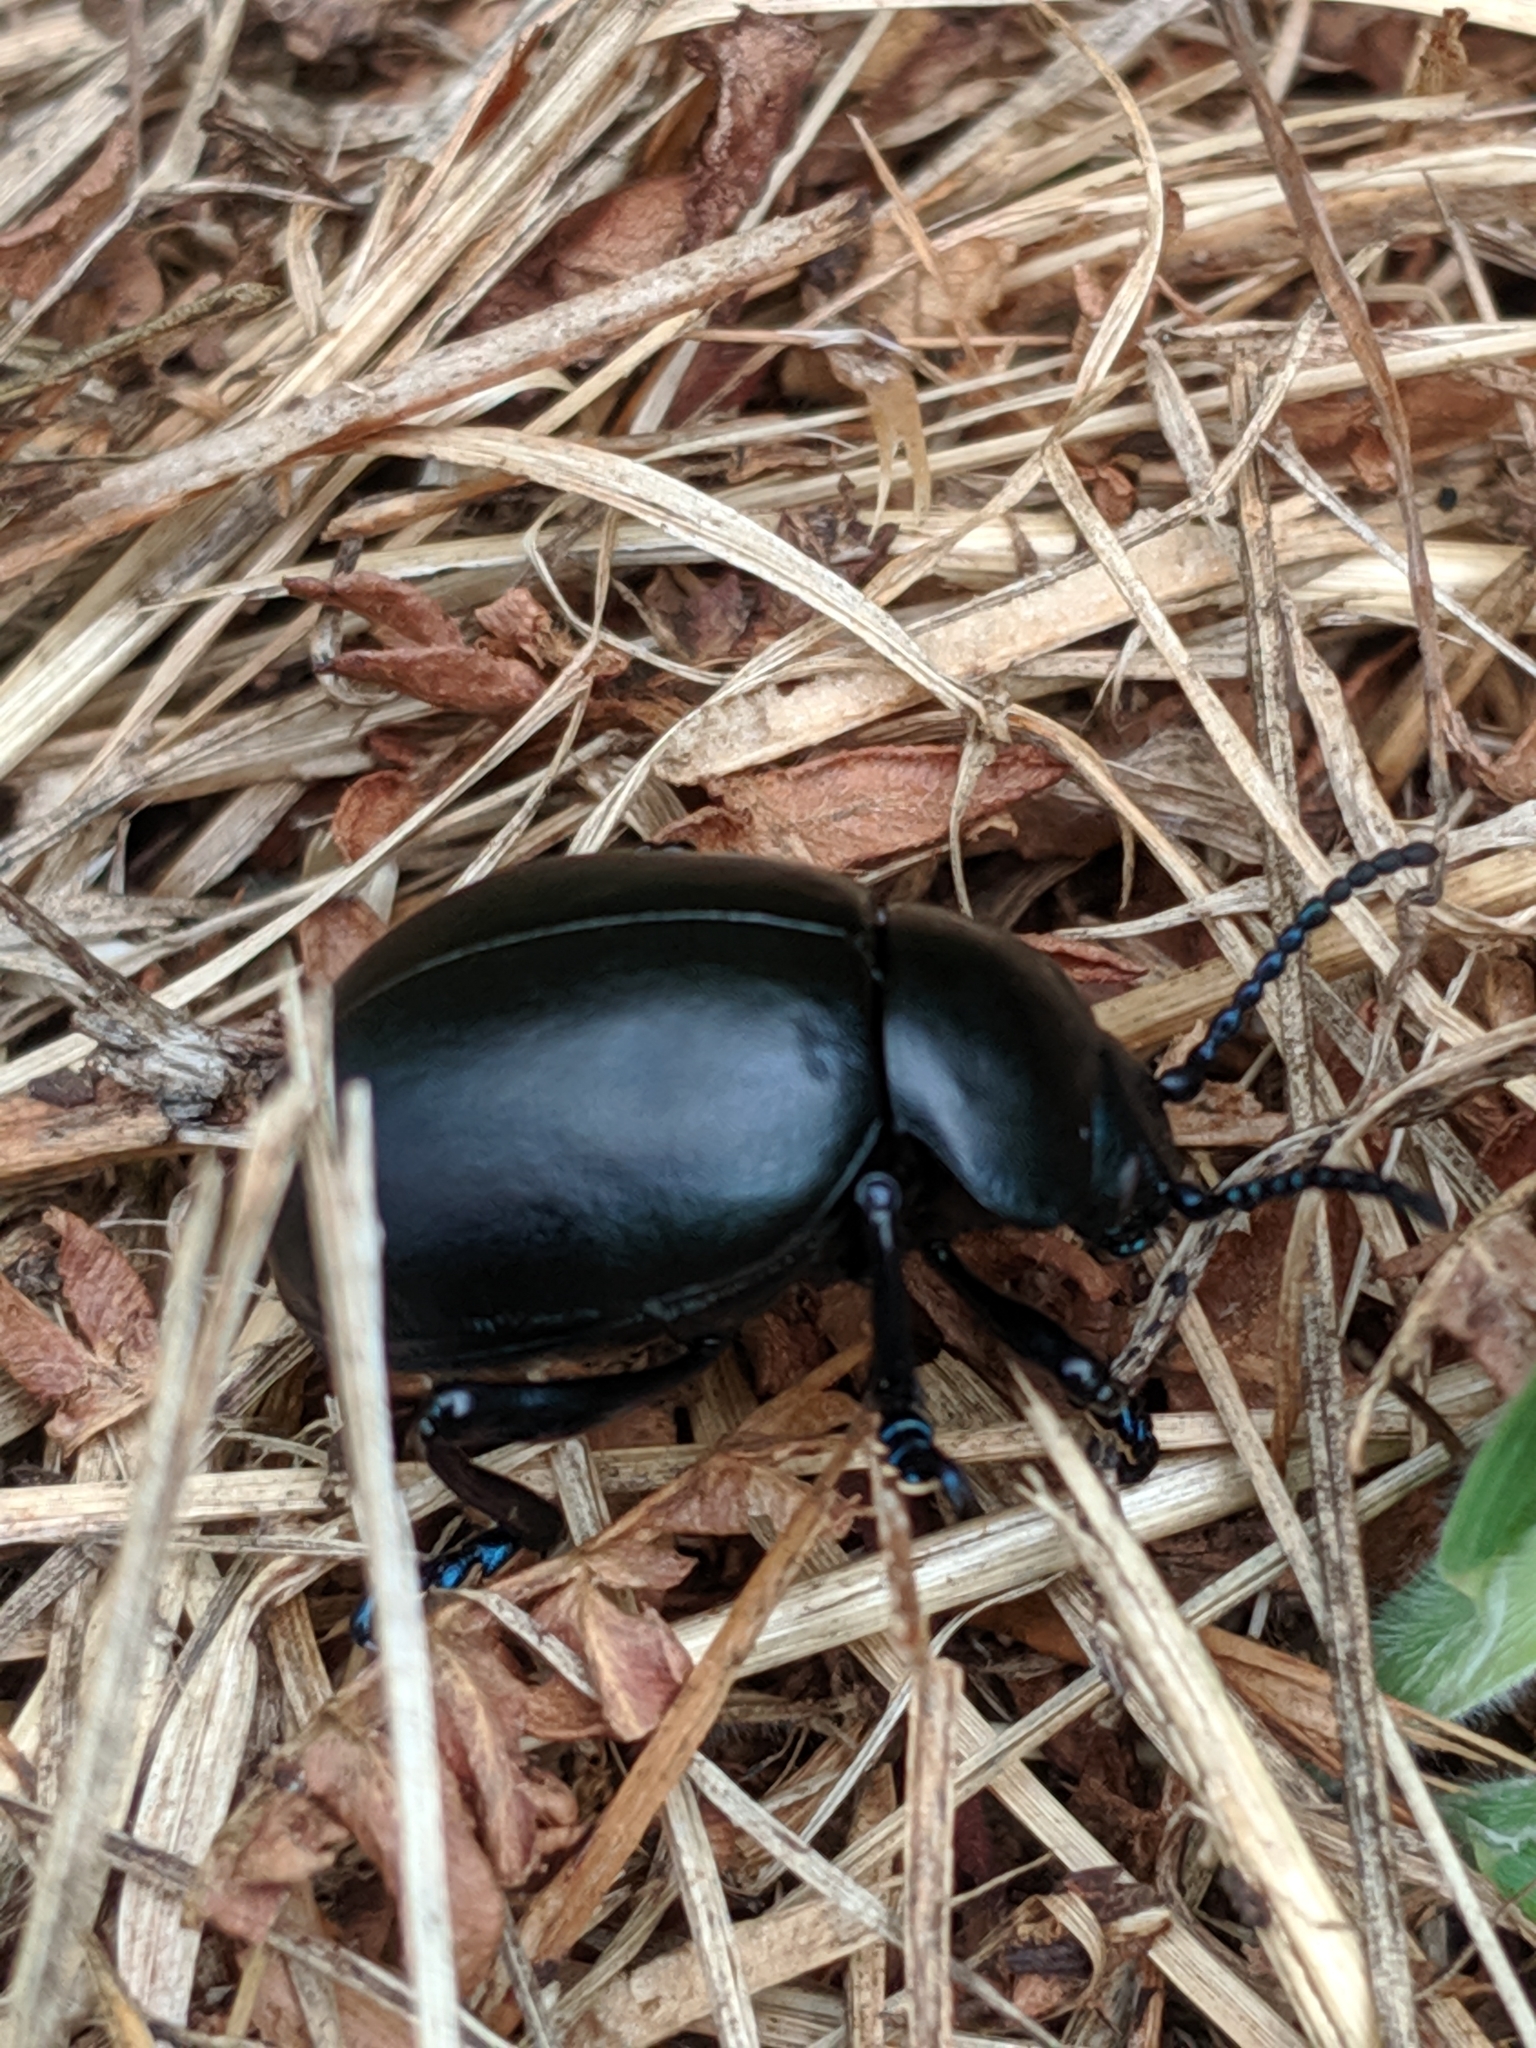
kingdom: Animalia
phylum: Arthropoda
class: Insecta
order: Coleoptera
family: Chrysomelidae
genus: Timarcha
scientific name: Timarcha tenebricosa
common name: Bloody-nosed beetle
